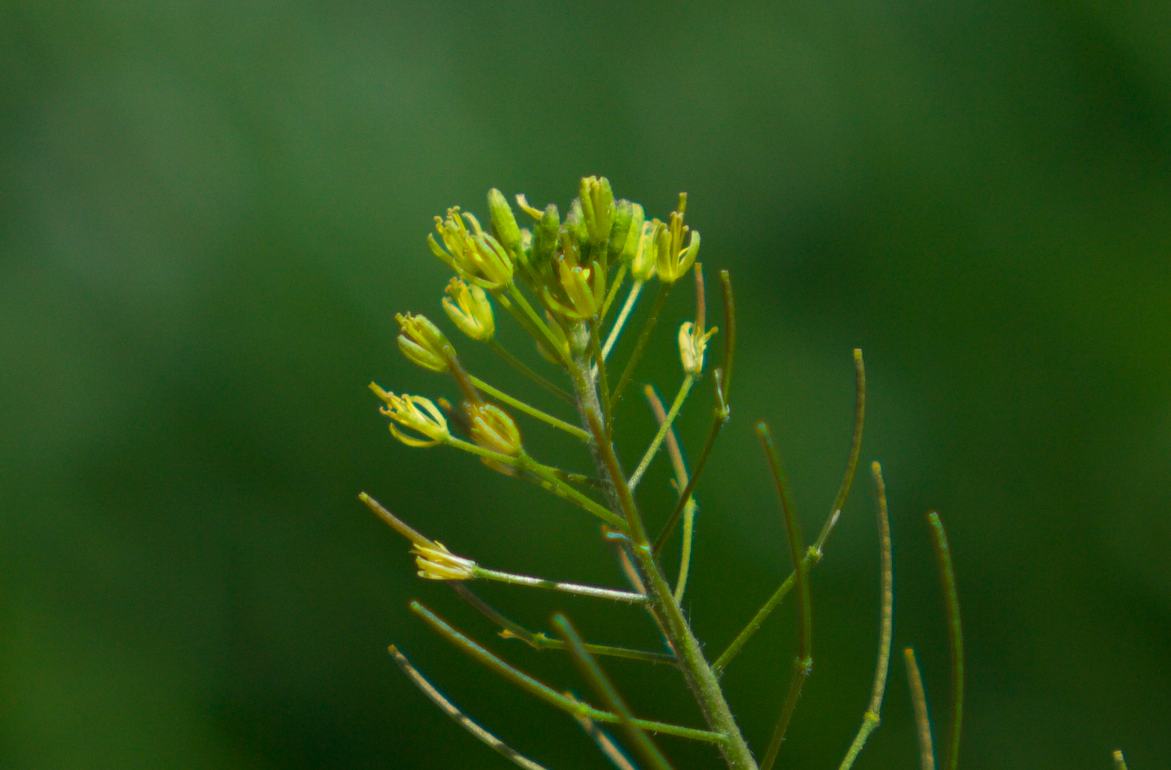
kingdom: Plantae
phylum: Tracheophyta
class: Magnoliopsida
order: Brassicales
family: Brassicaceae
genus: Descurainia
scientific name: Descurainia sophia
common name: Flixweed
